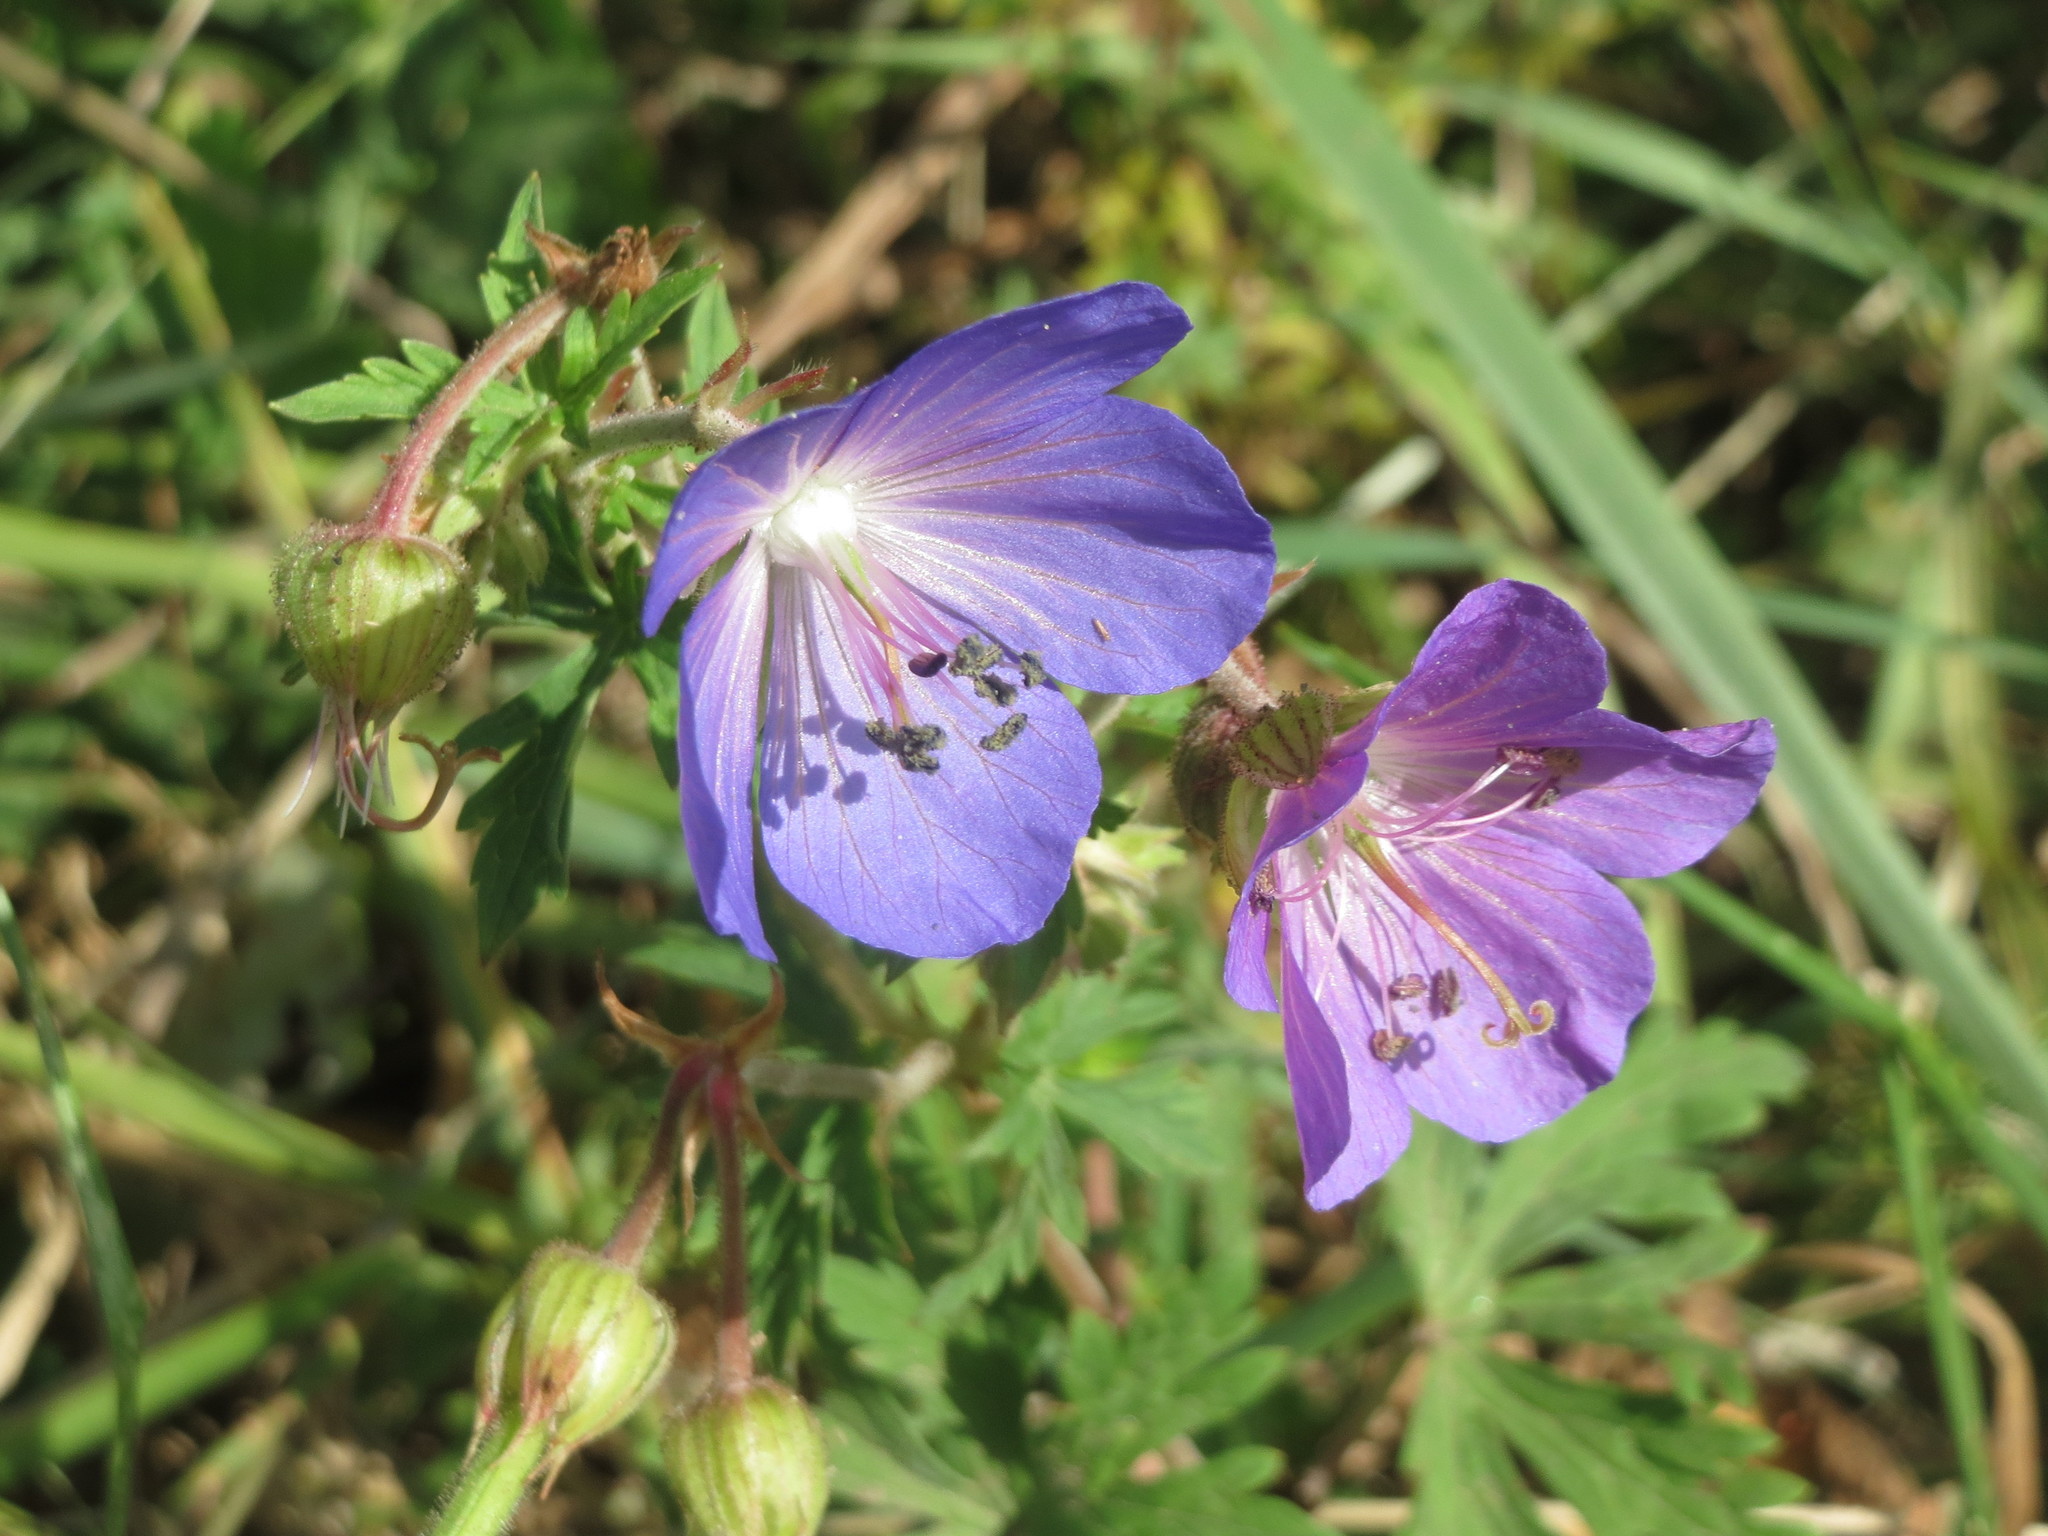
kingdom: Plantae
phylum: Tracheophyta
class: Magnoliopsida
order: Geraniales
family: Geraniaceae
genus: Geranium
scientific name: Geranium pratense
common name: Meadow crane's-bill
